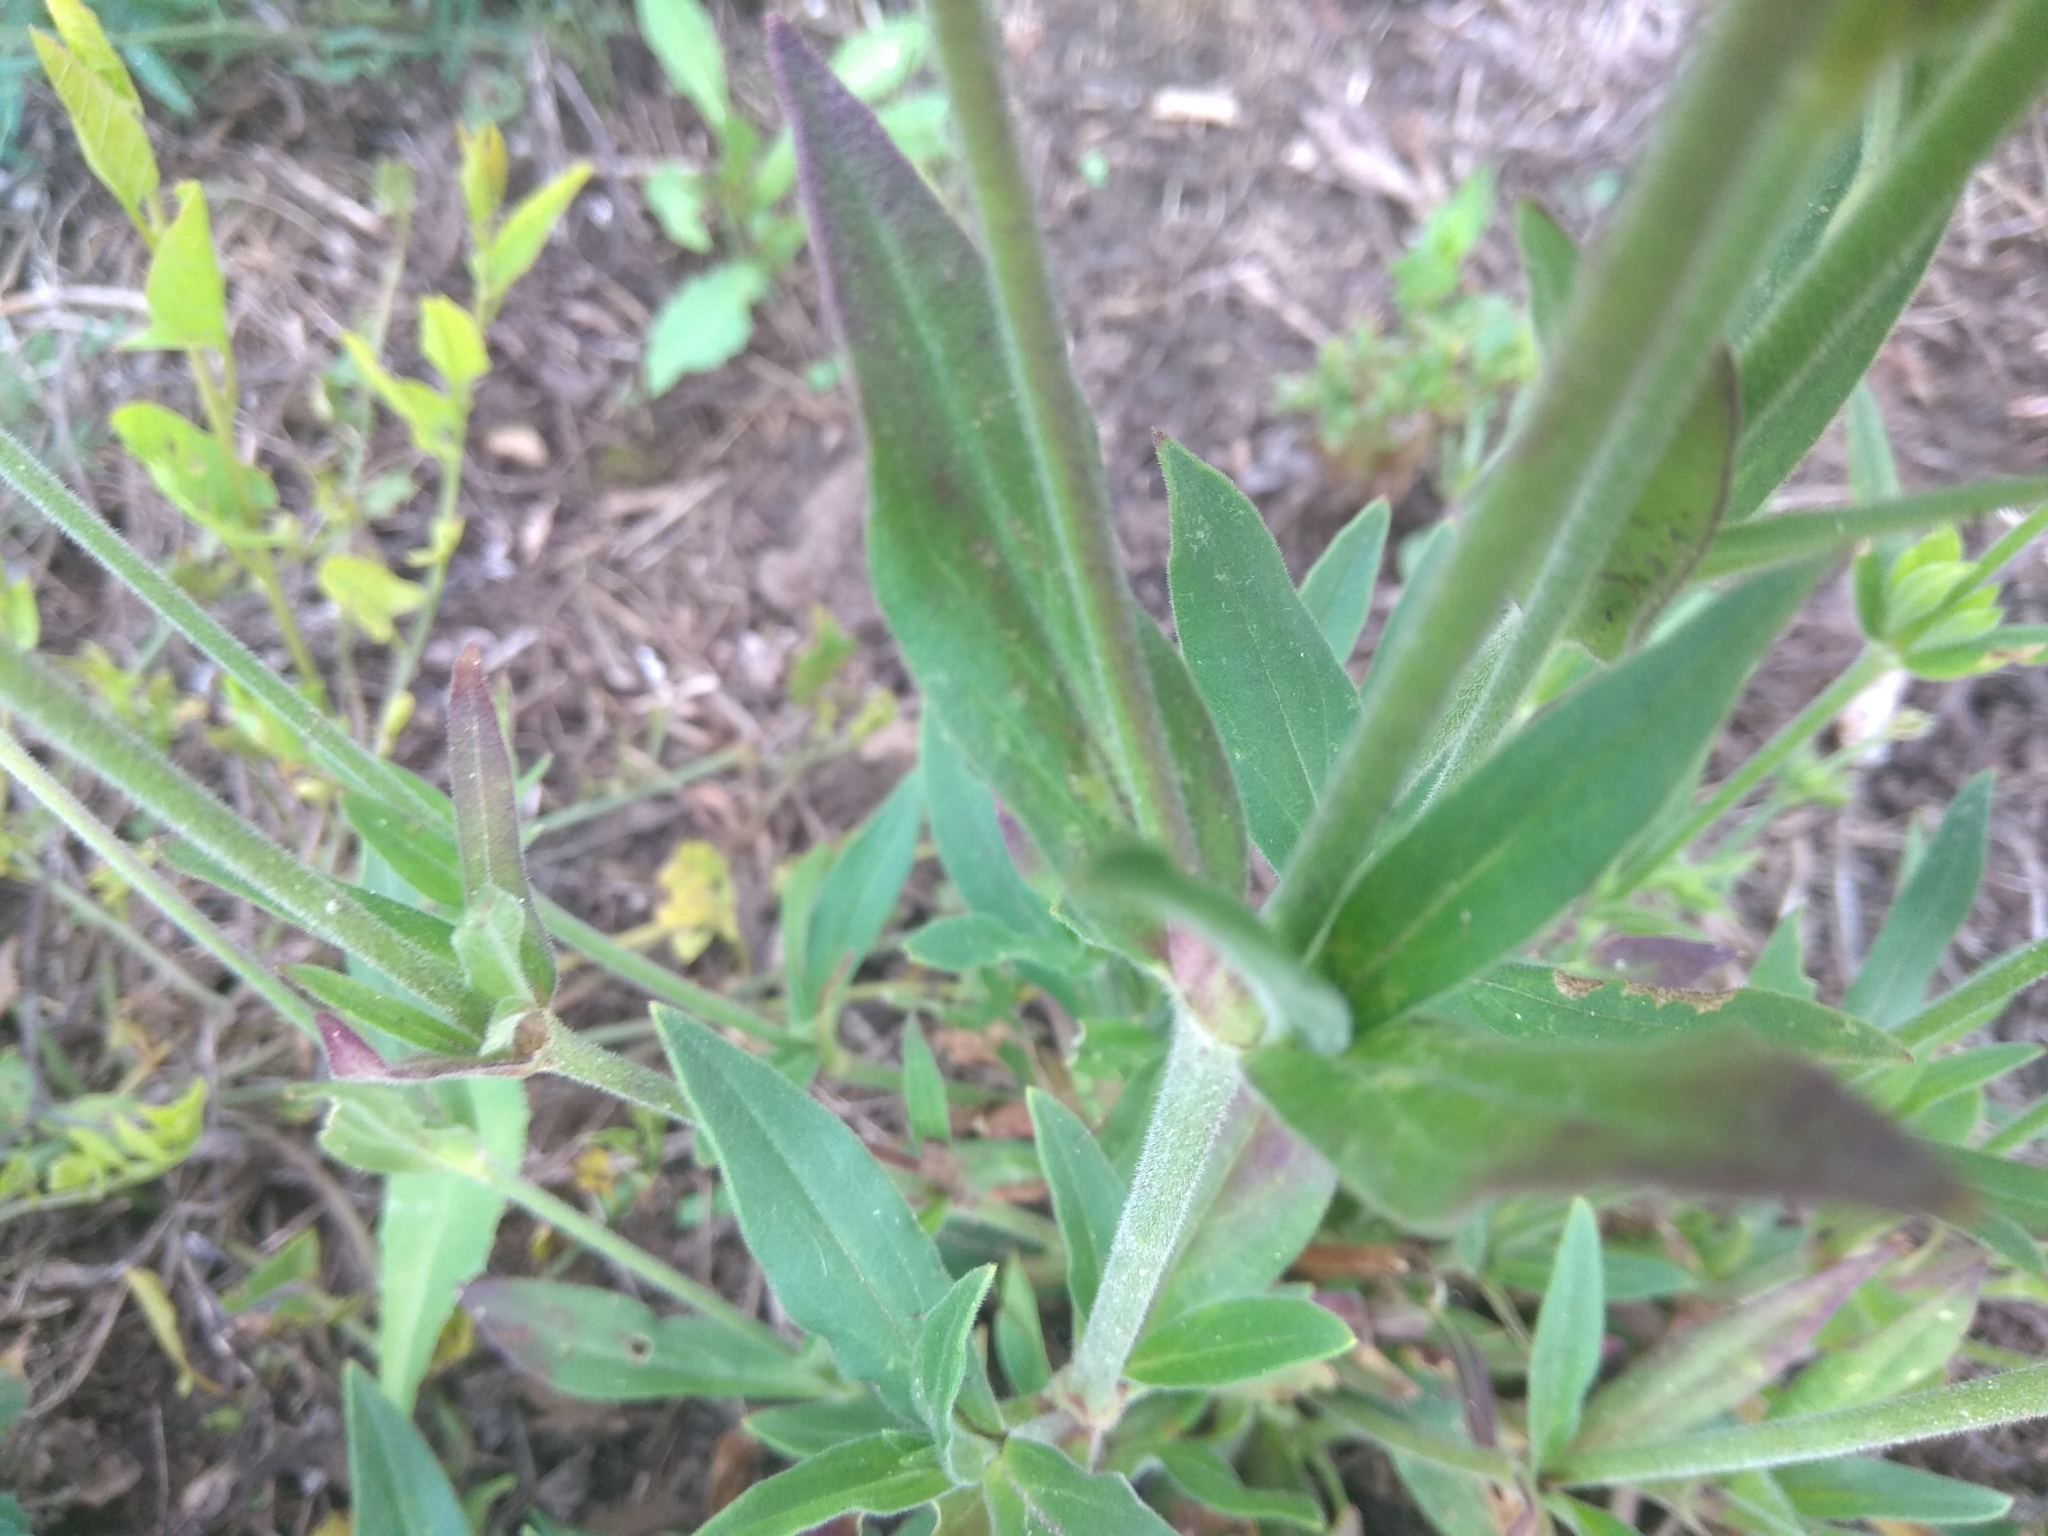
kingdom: Plantae
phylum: Tracheophyta
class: Magnoliopsida
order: Caryophyllales
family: Caryophyllaceae
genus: Silene
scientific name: Silene latifolia
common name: White campion
